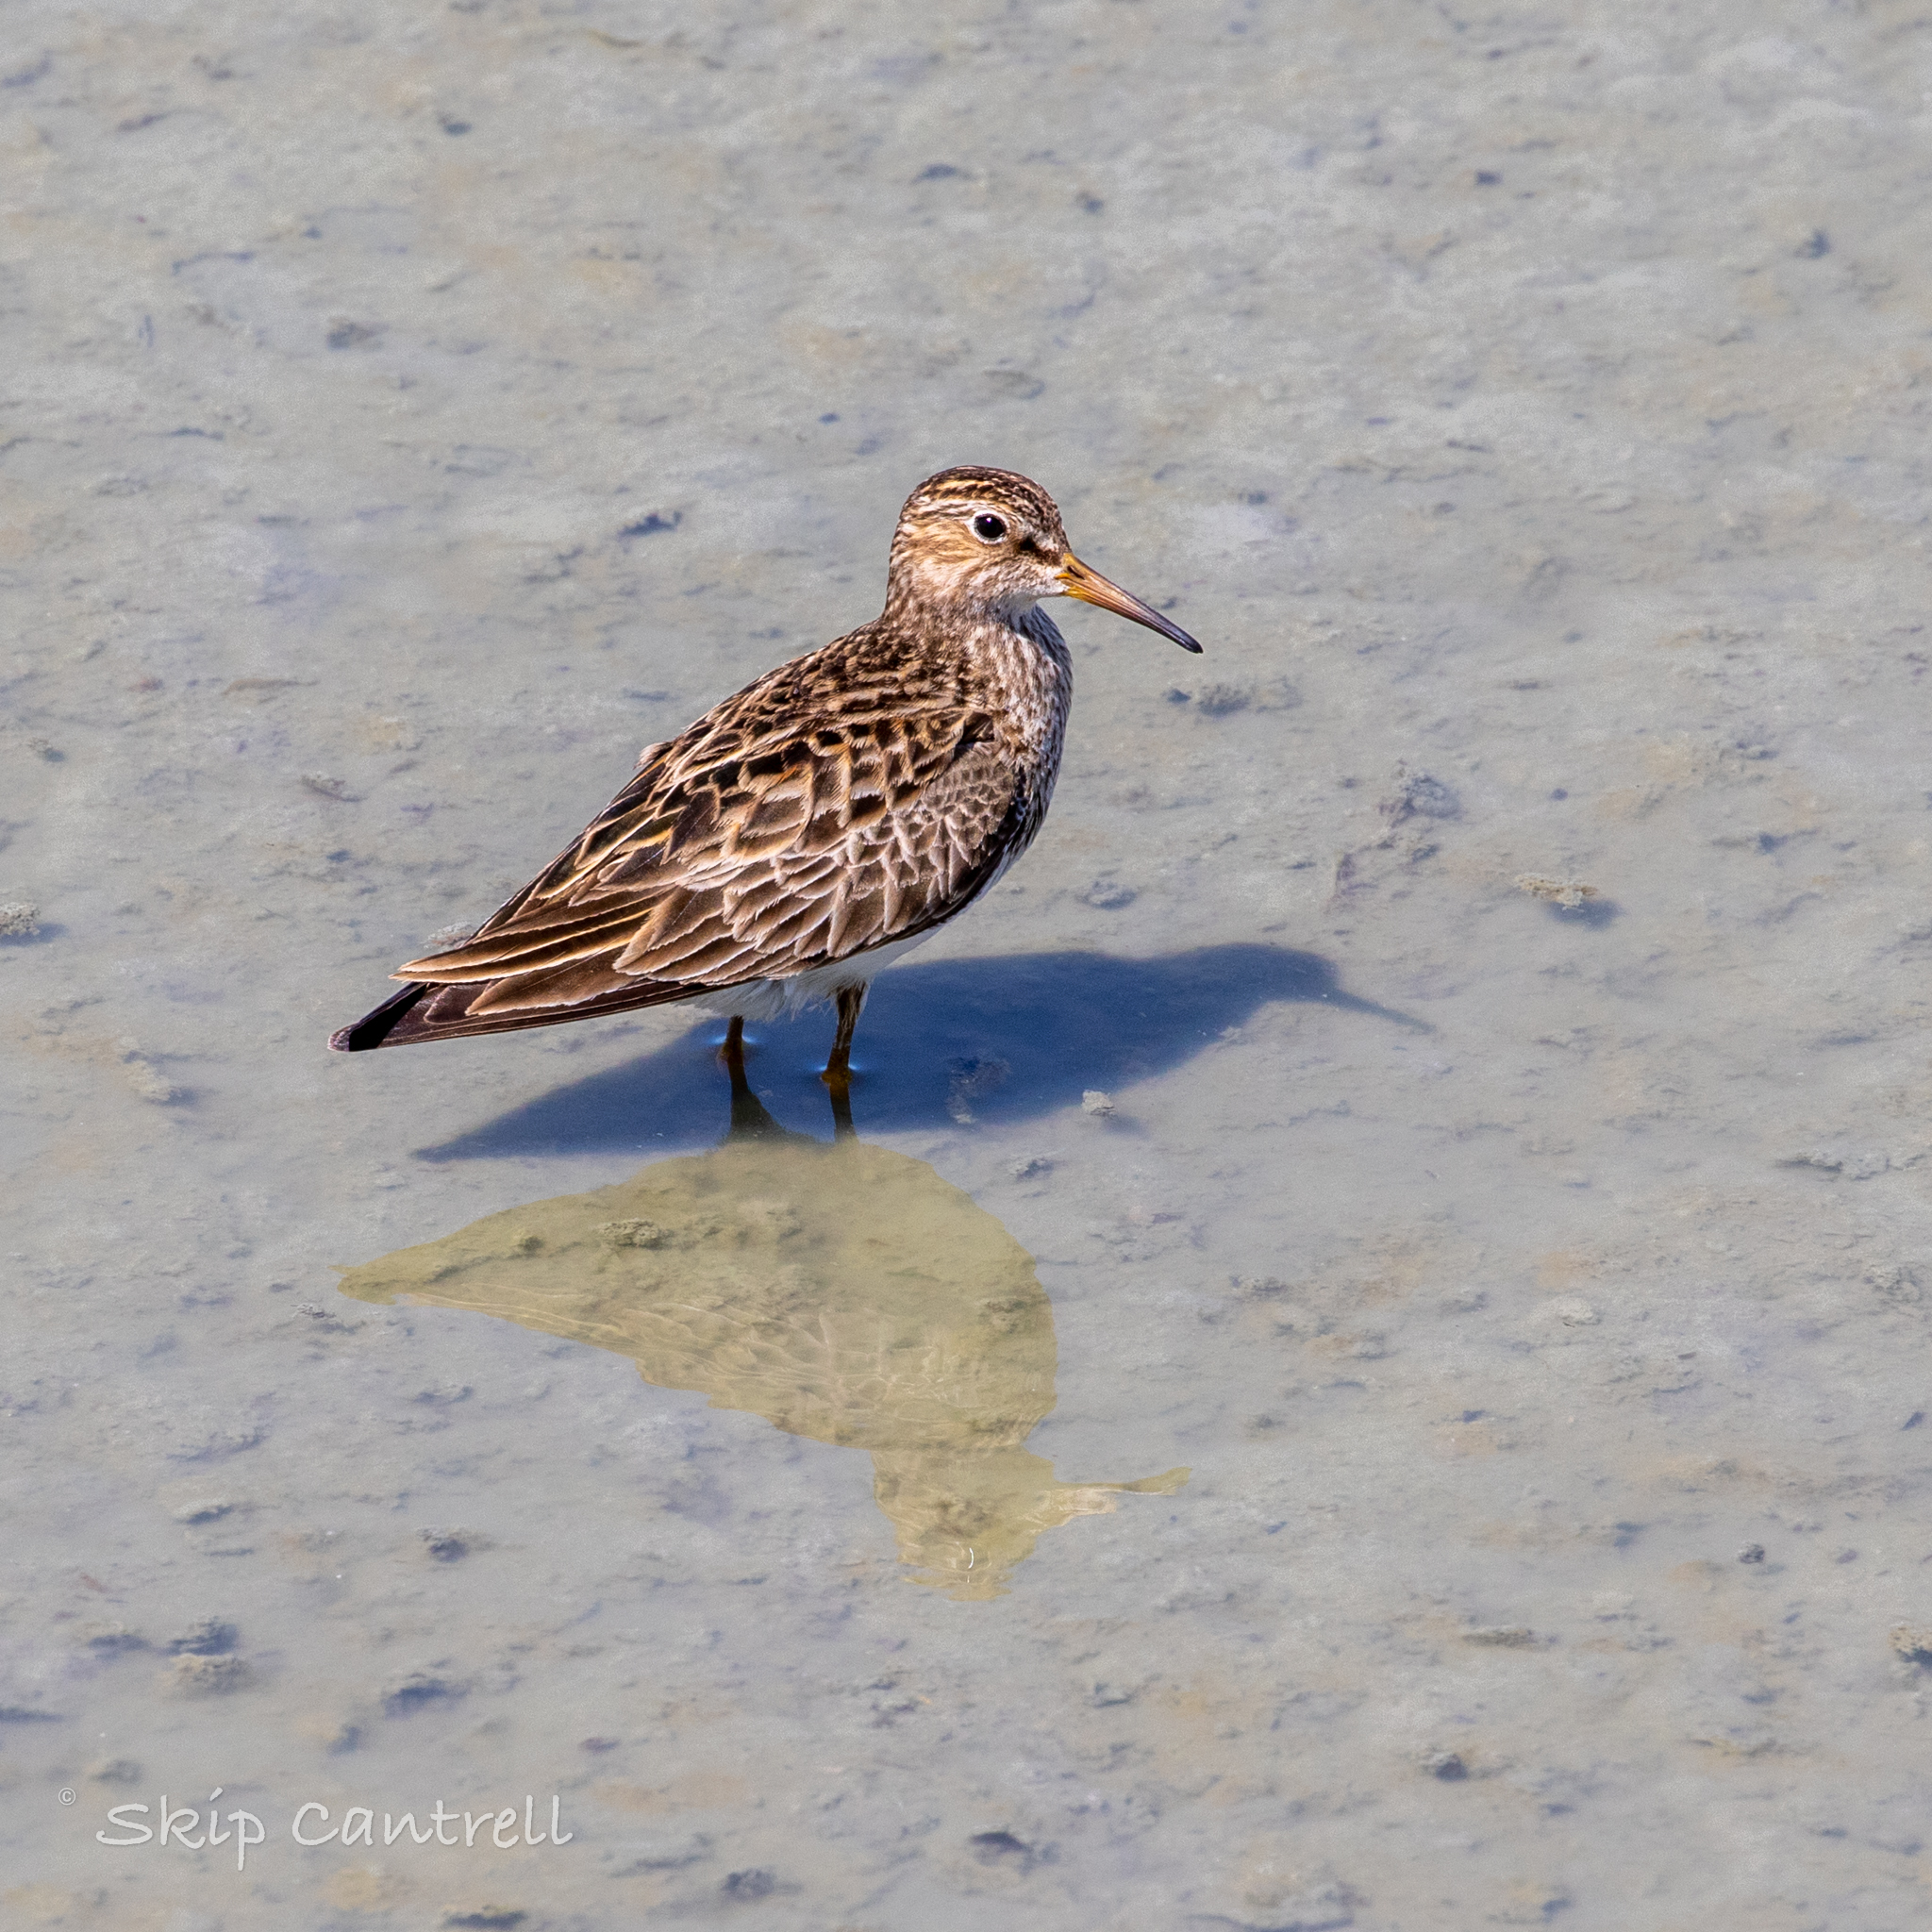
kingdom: Animalia
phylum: Chordata
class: Aves
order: Charadriiformes
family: Scolopacidae
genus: Calidris
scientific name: Calidris melanotos
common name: Pectoral sandpiper
